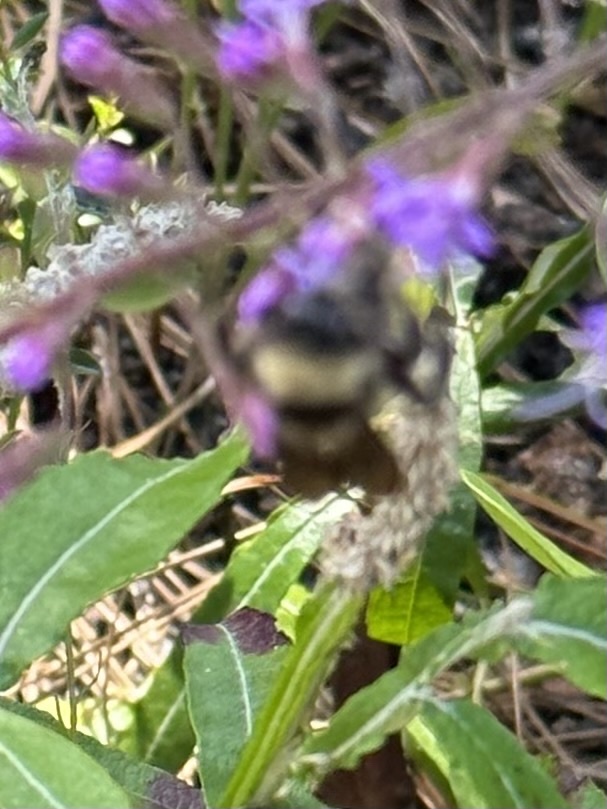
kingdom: Animalia
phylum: Arthropoda
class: Insecta
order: Hymenoptera
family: Apidae
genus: Bombus
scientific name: Bombus pensylvanicus
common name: Bumble bee
